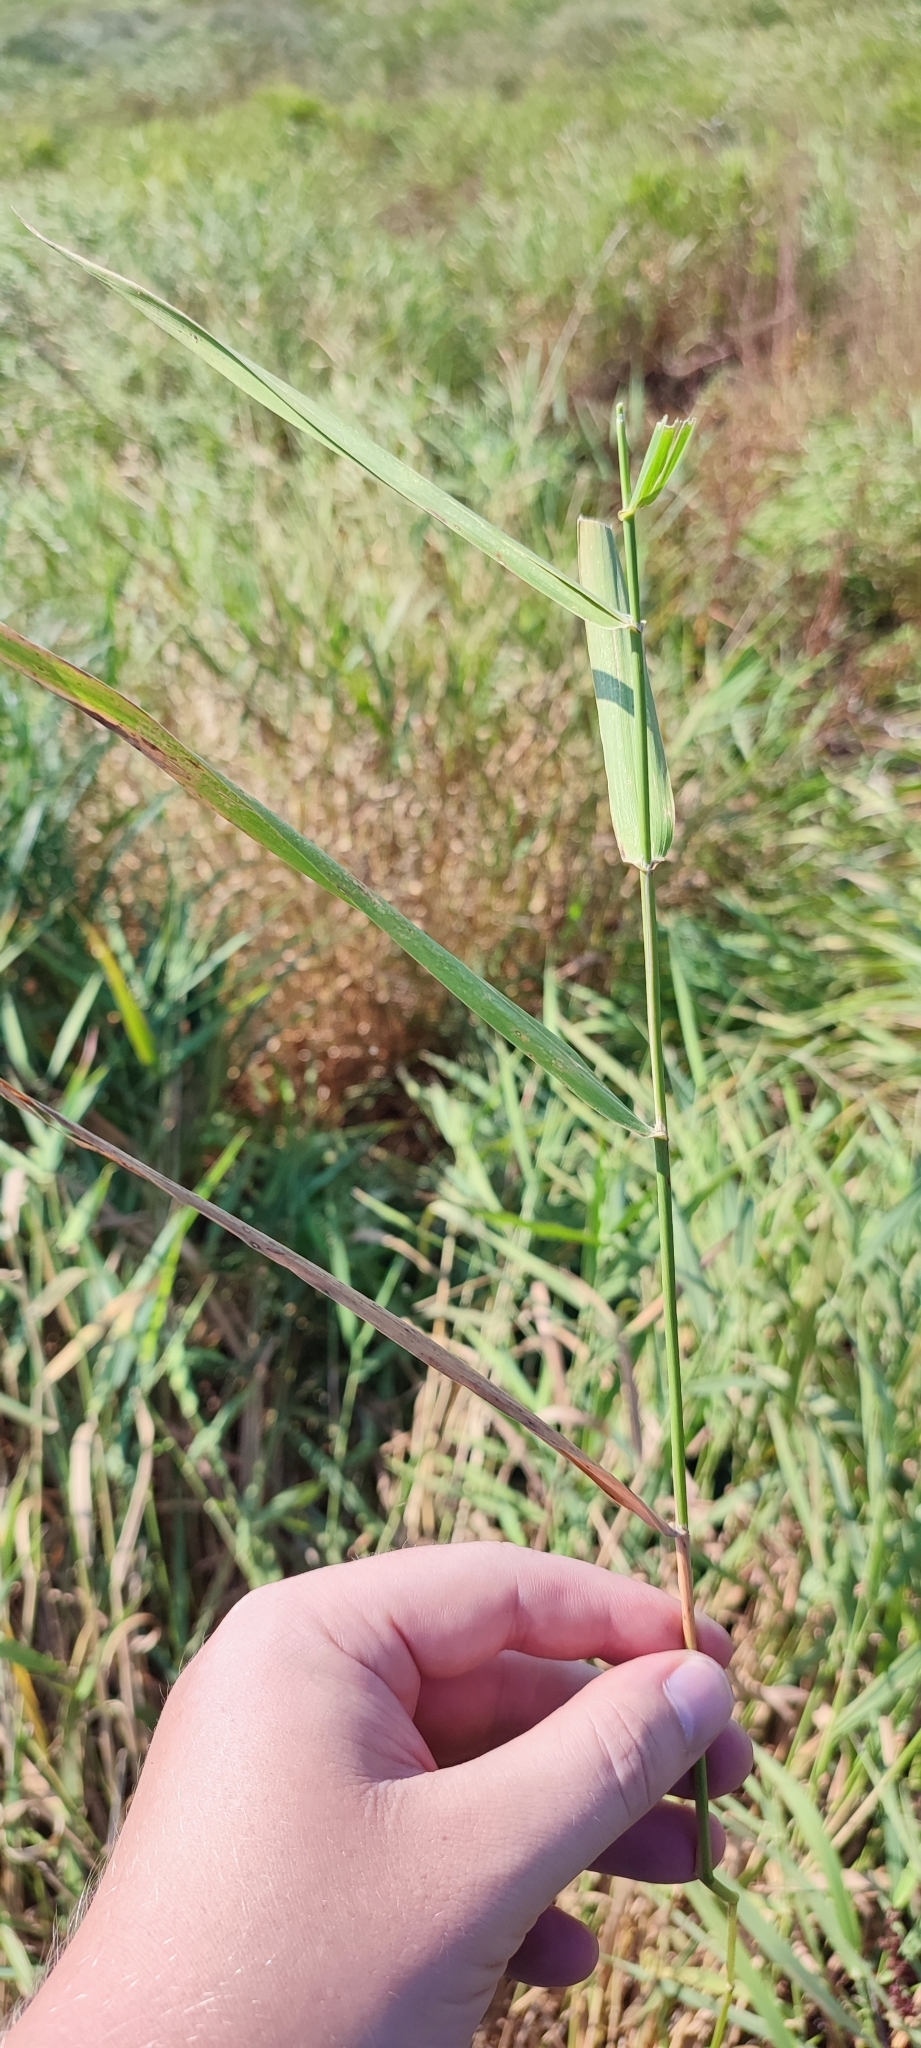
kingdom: Plantae
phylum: Tracheophyta
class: Liliopsida
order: Poales
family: Poaceae
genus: Phragmites
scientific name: Phragmites australis
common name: Common reed
